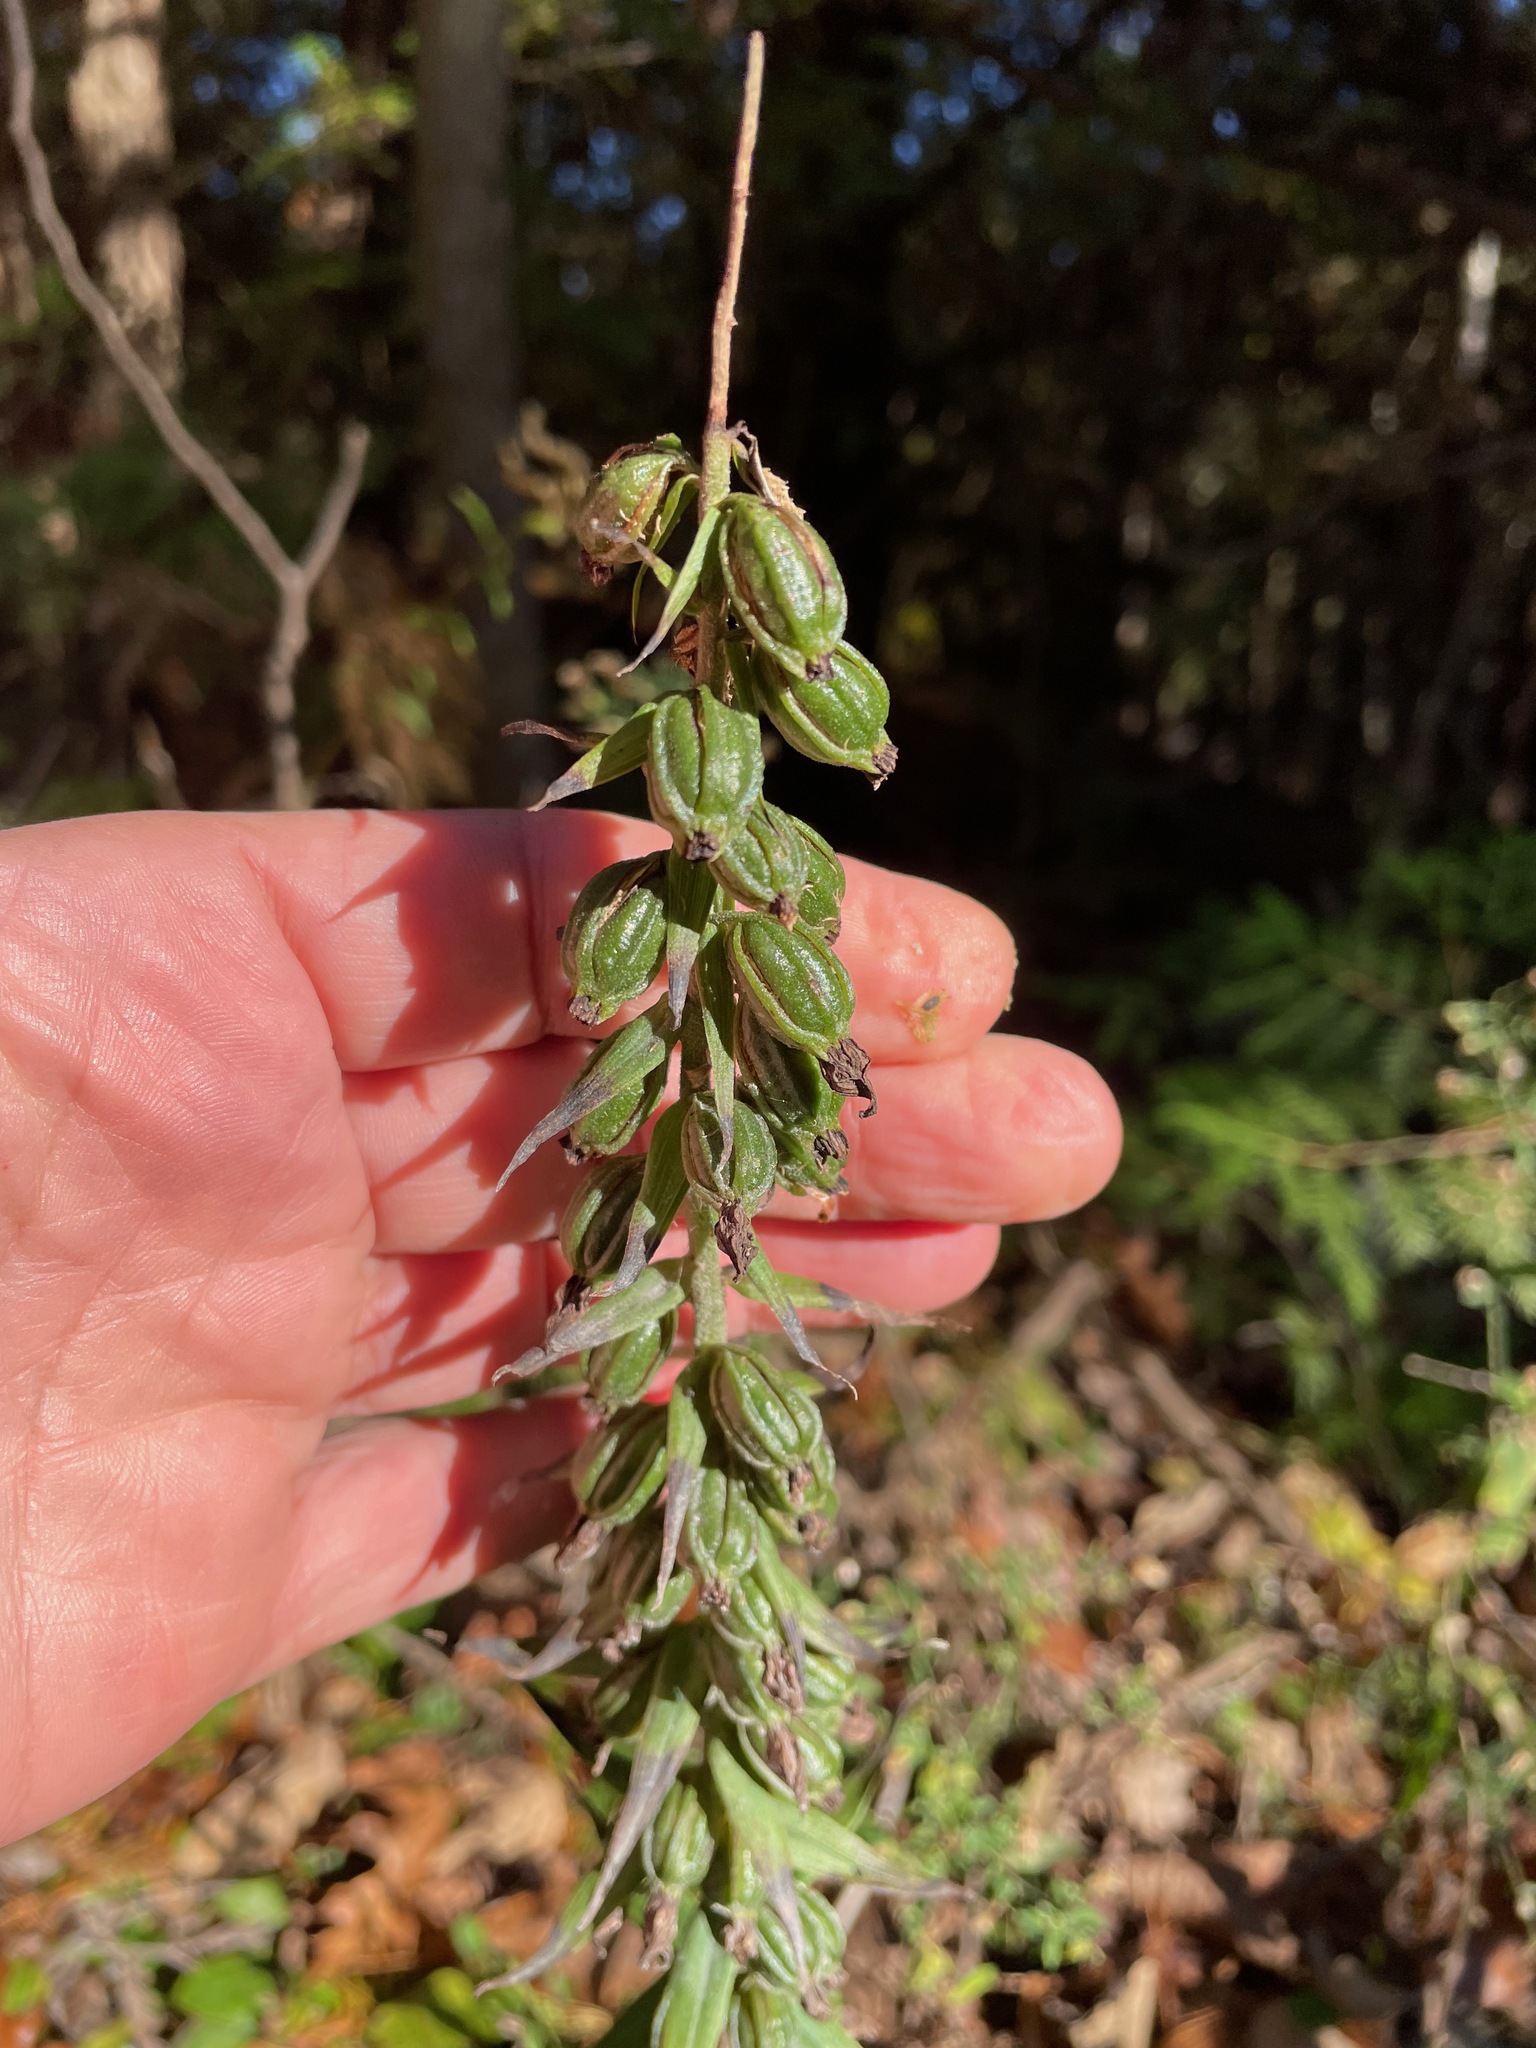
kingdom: Plantae
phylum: Tracheophyta
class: Liliopsida
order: Asparagales
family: Orchidaceae
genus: Epipactis
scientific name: Epipactis helleborine
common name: Broad-leaved helleborine
